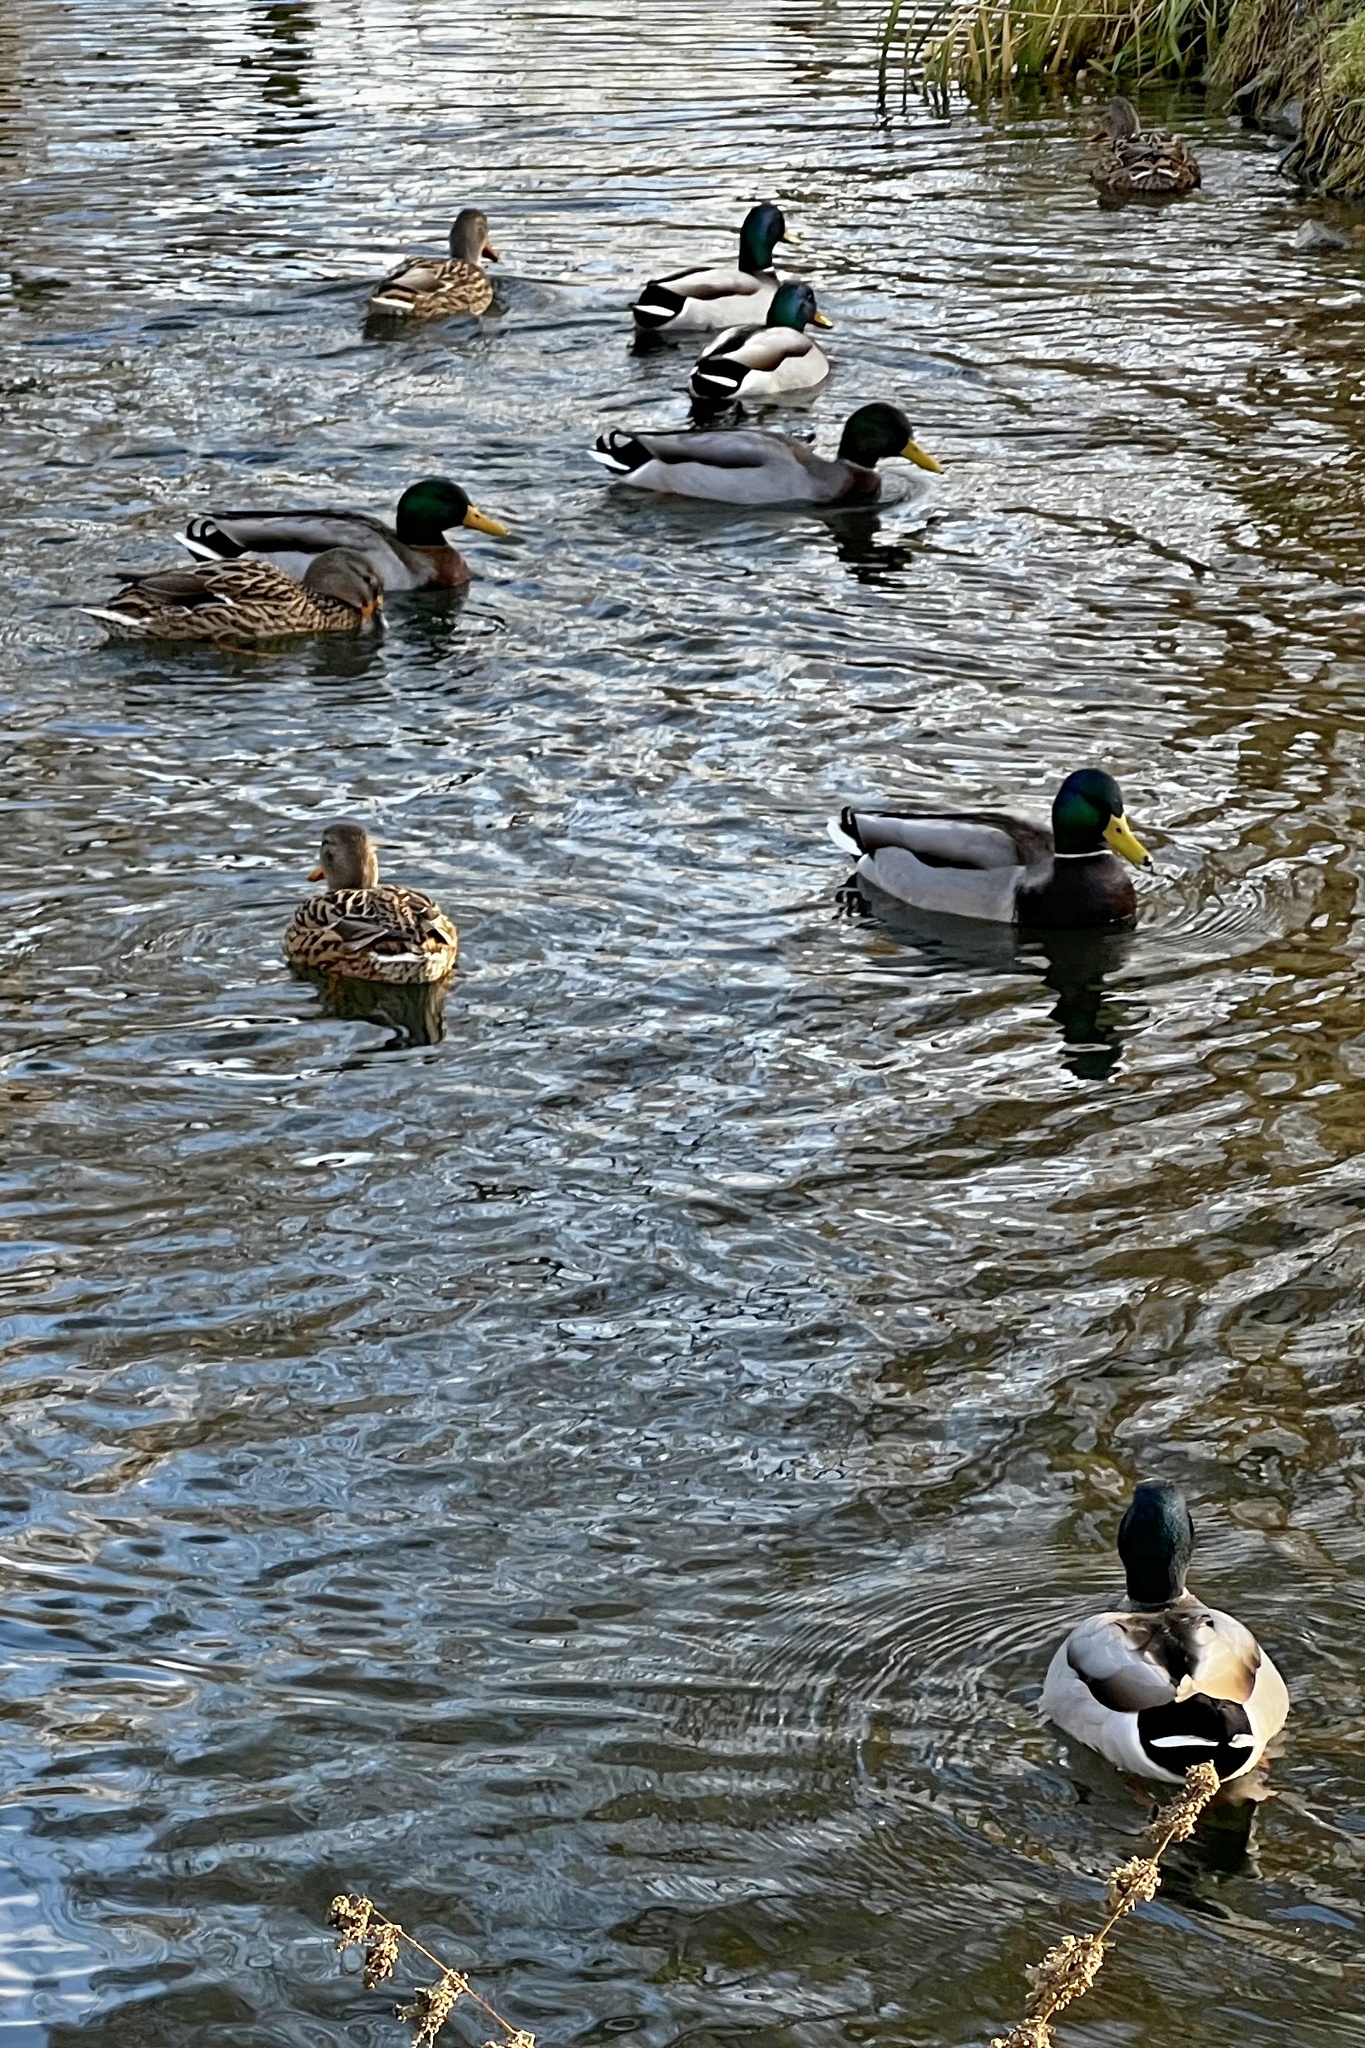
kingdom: Animalia
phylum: Chordata
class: Aves
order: Anseriformes
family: Anatidae
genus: Anas
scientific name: Anas platyrhynchos
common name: Mallard
